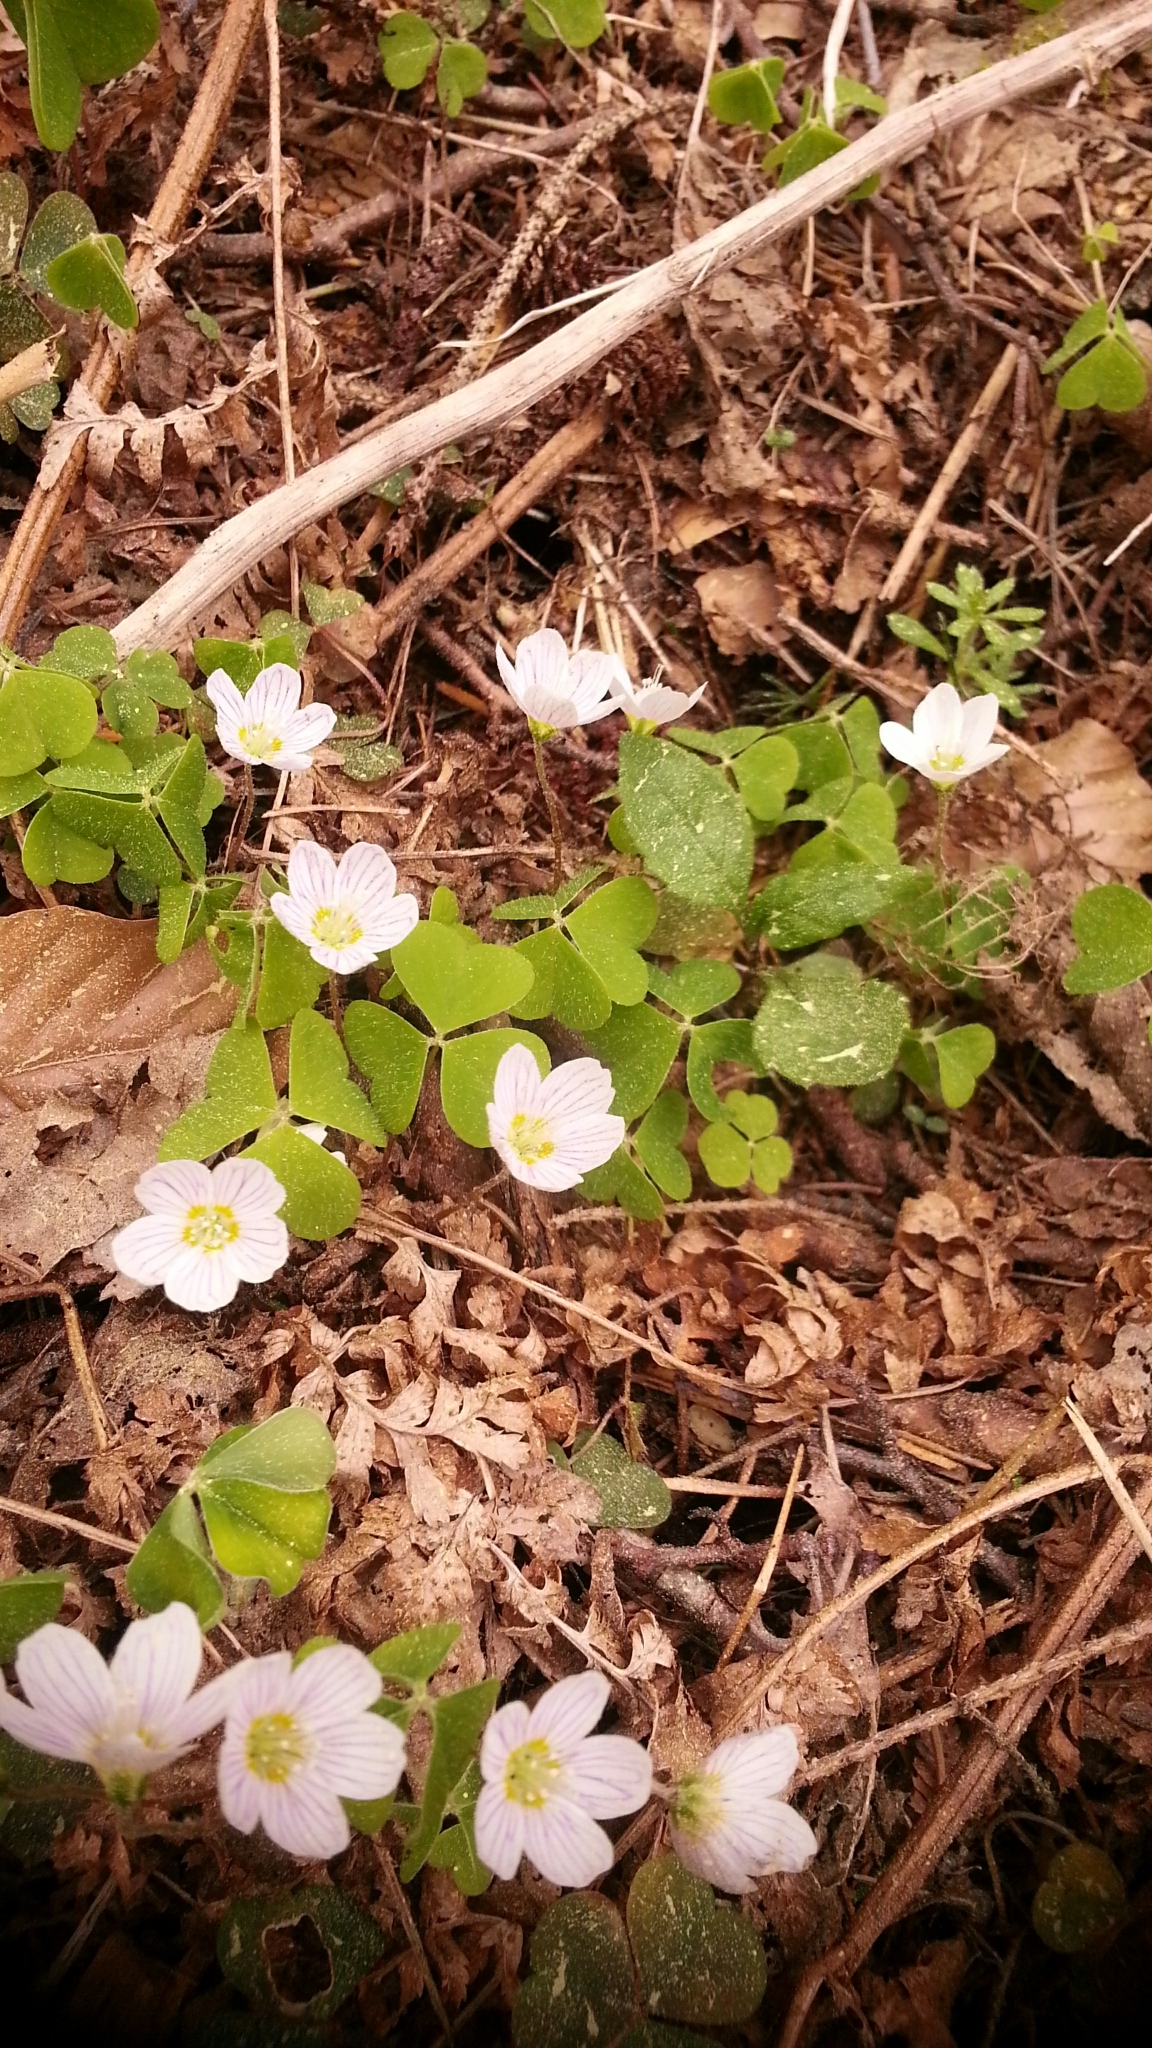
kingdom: Plantae
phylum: Tracheophyta
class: Magnoliopsida
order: Oxalidales
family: Oxalidaceae
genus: Oxalis
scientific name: Oxalis acetosella
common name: Wood-sorrel
